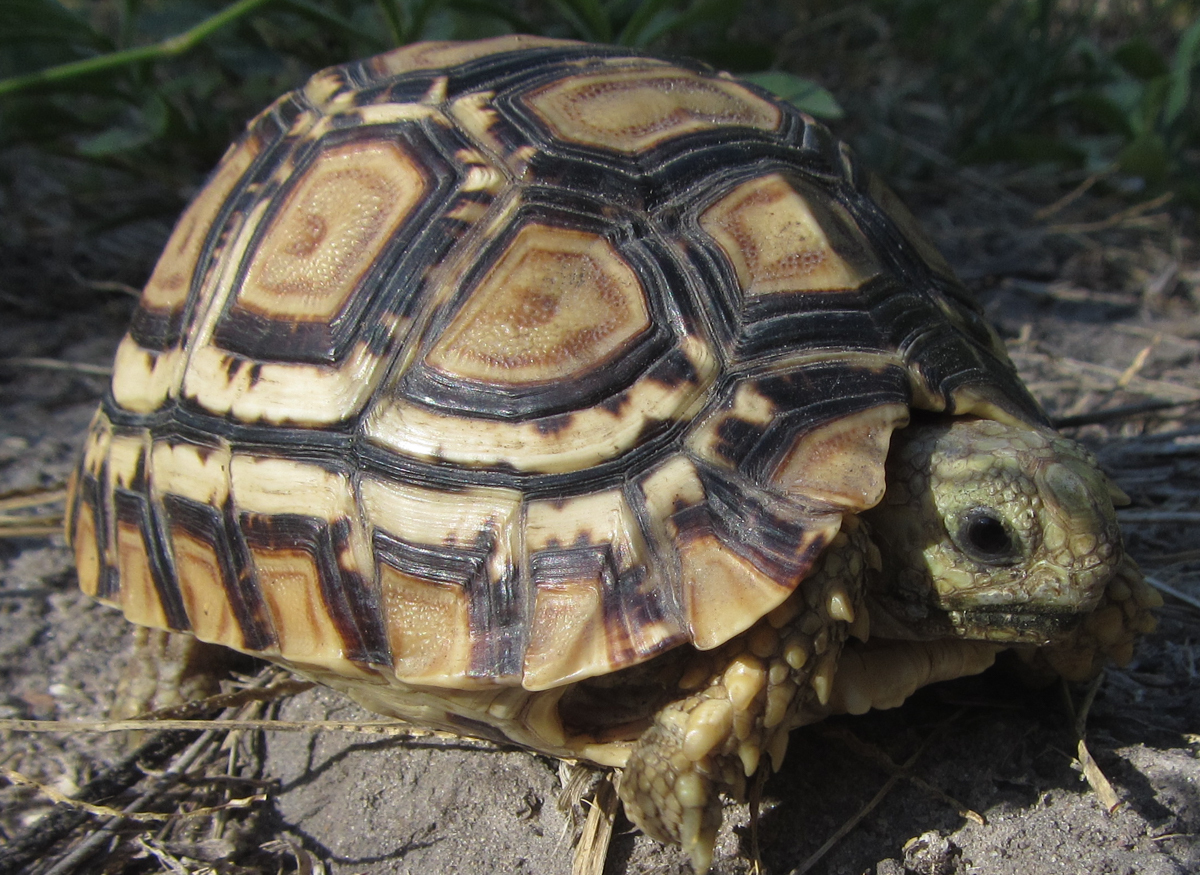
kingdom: Animalia
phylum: Chordata
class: Testudines
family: Testudinidae
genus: Stigmochelys
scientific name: Stigmochelys pardalis
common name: Leopard tortoise
